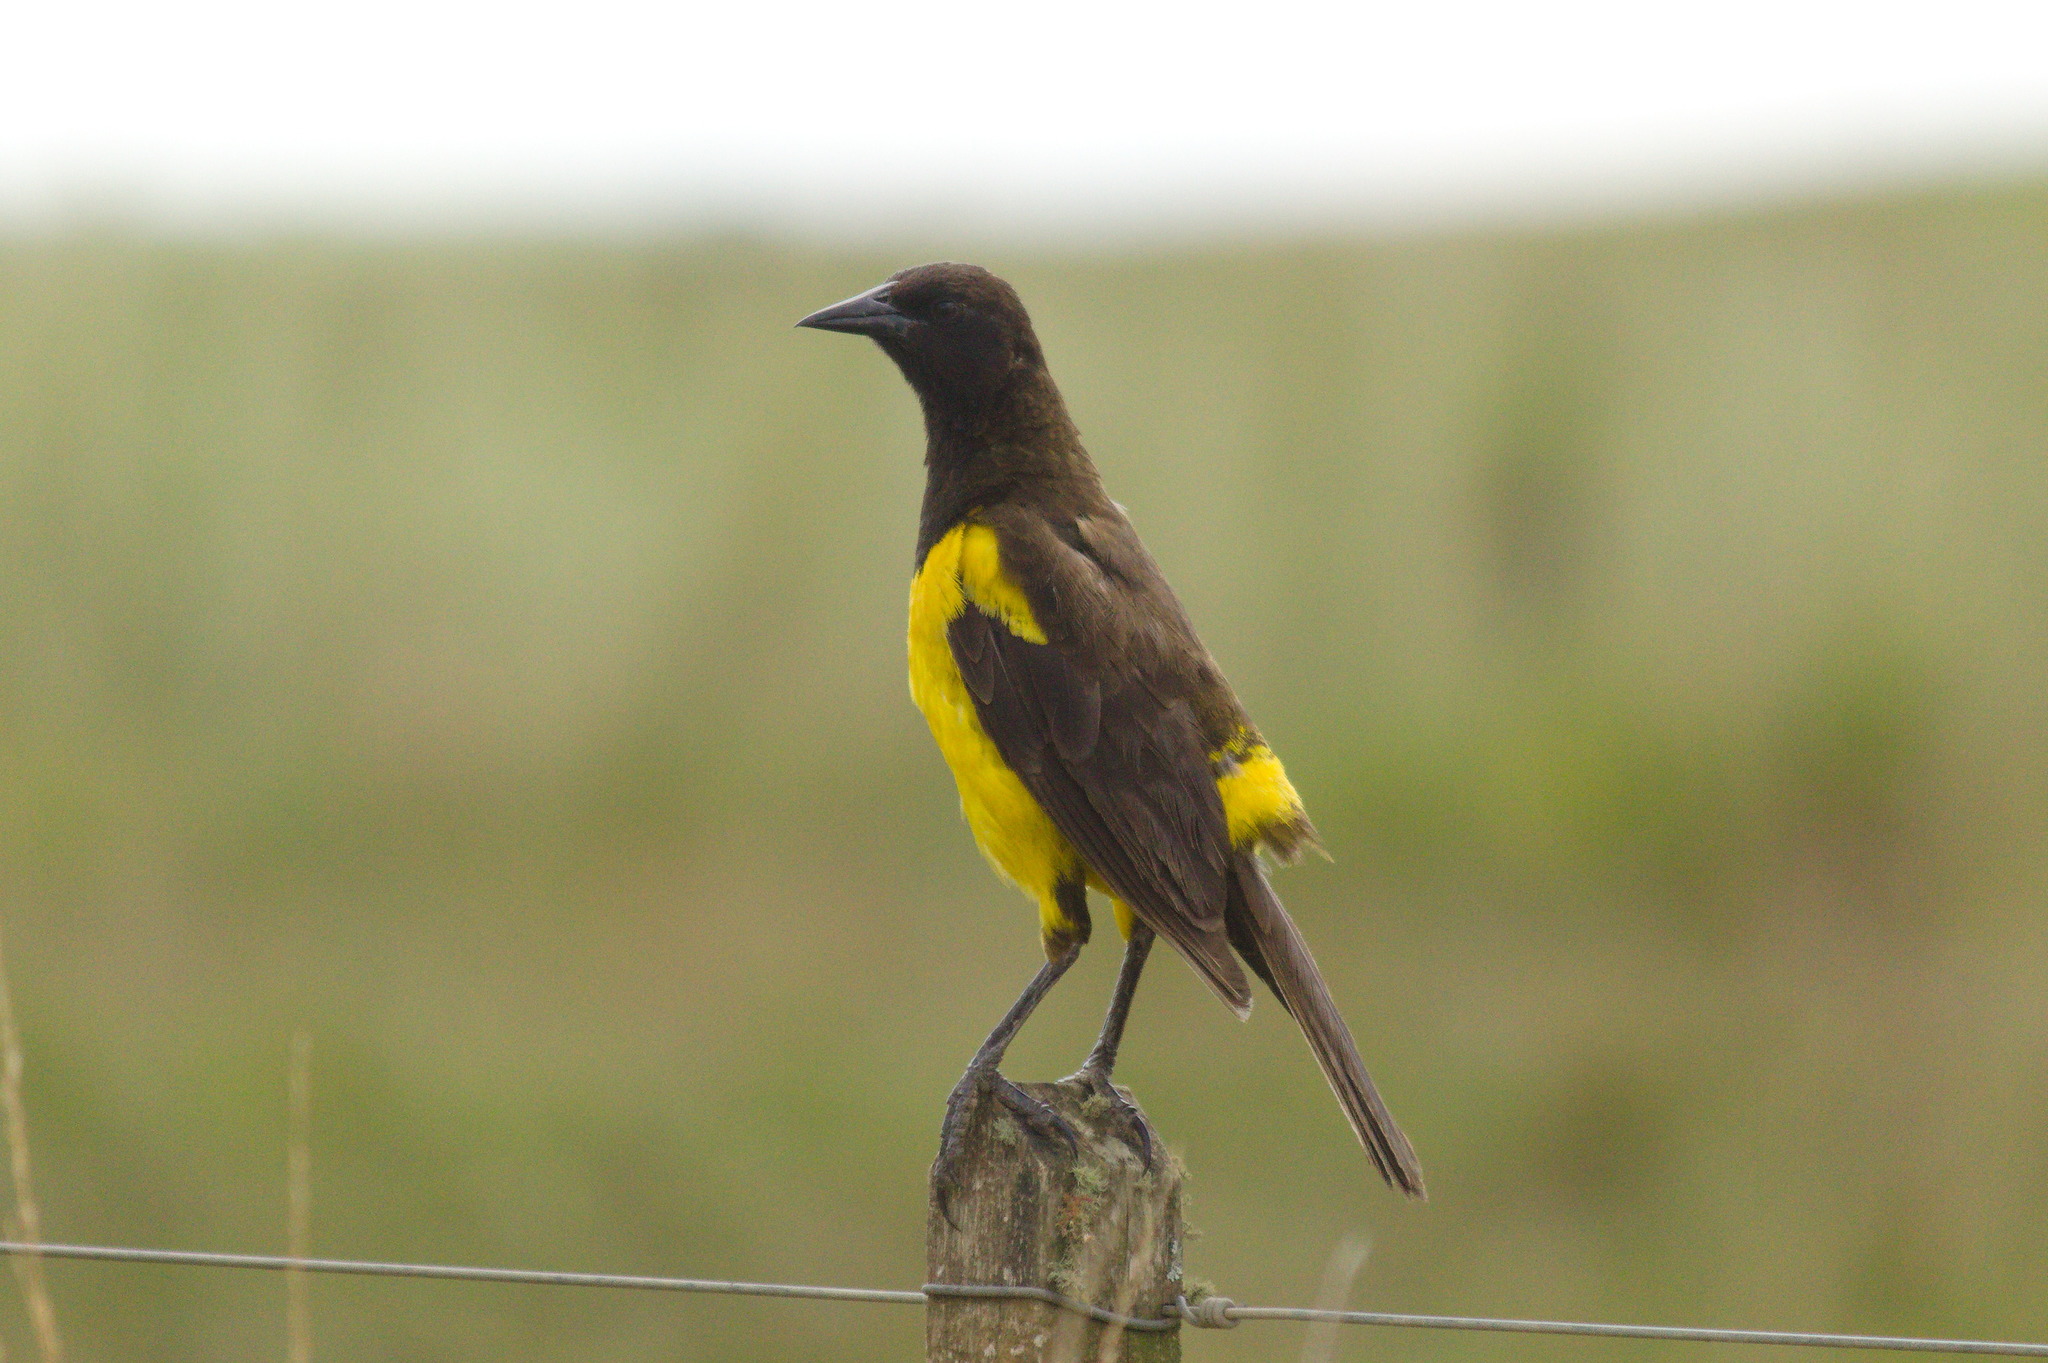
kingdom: Animalia
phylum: Chordata
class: Aves
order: Passeriformes
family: Icteridae
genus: Pseudoleistes
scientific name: Pseudoleistes guirahuro
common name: Yellow-rumped marshbird
